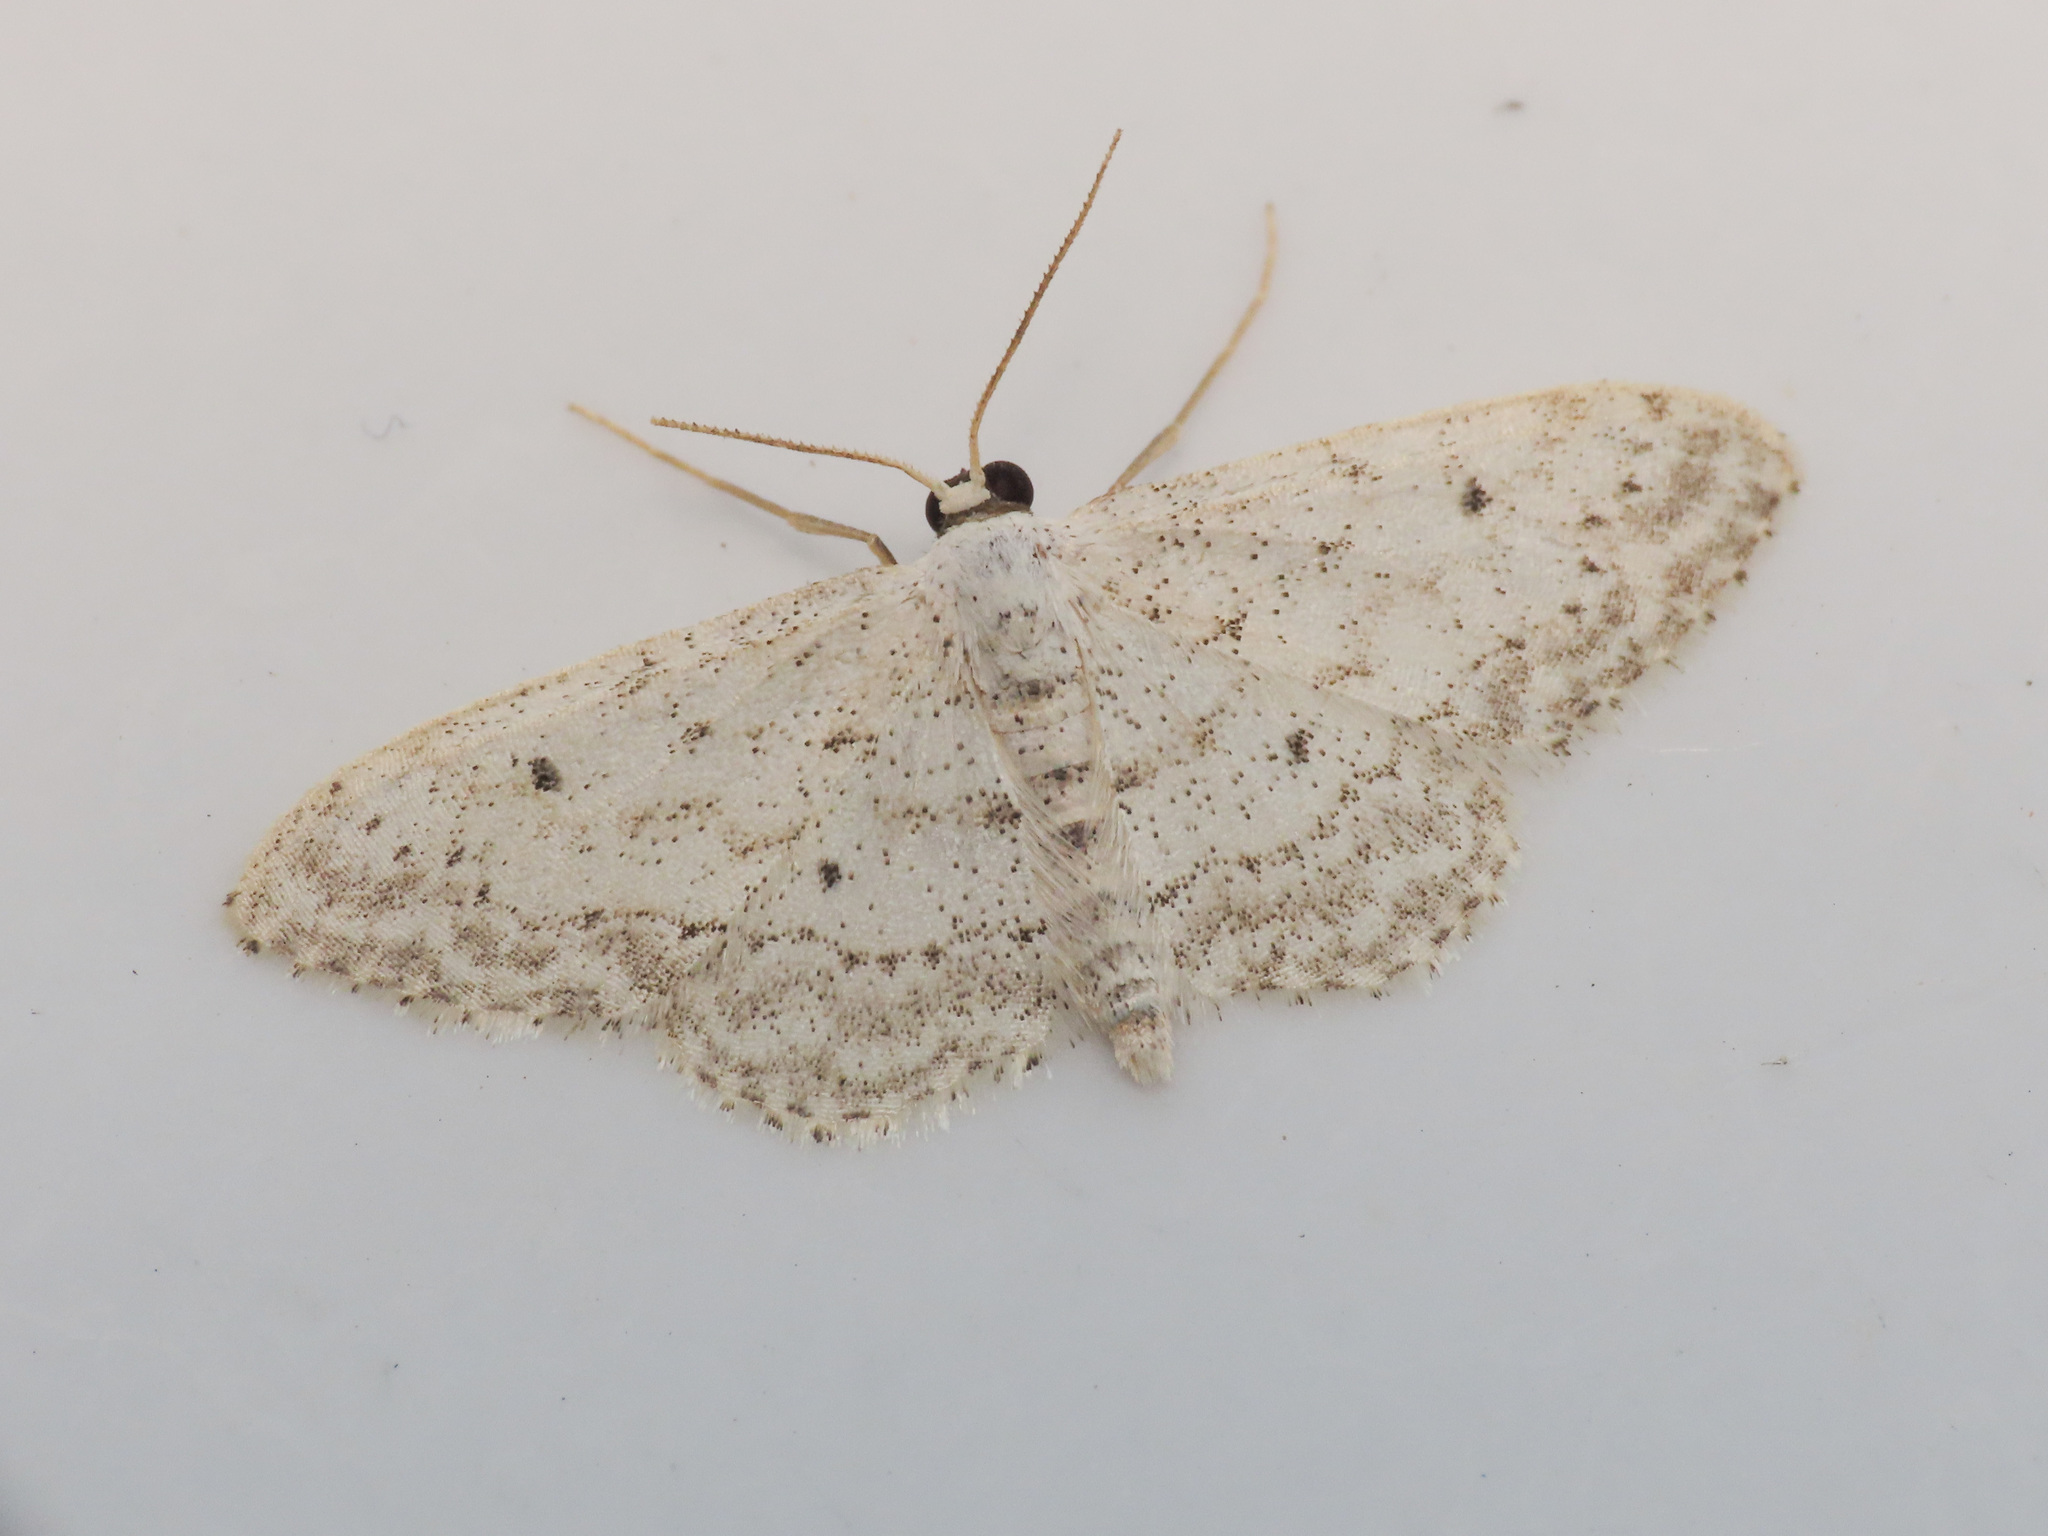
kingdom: Animalia
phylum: Arthropoda
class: Insecta
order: Lepidoptera
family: Geometridae
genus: Idaea
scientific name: Idaea seriata
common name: Small dusty wave
